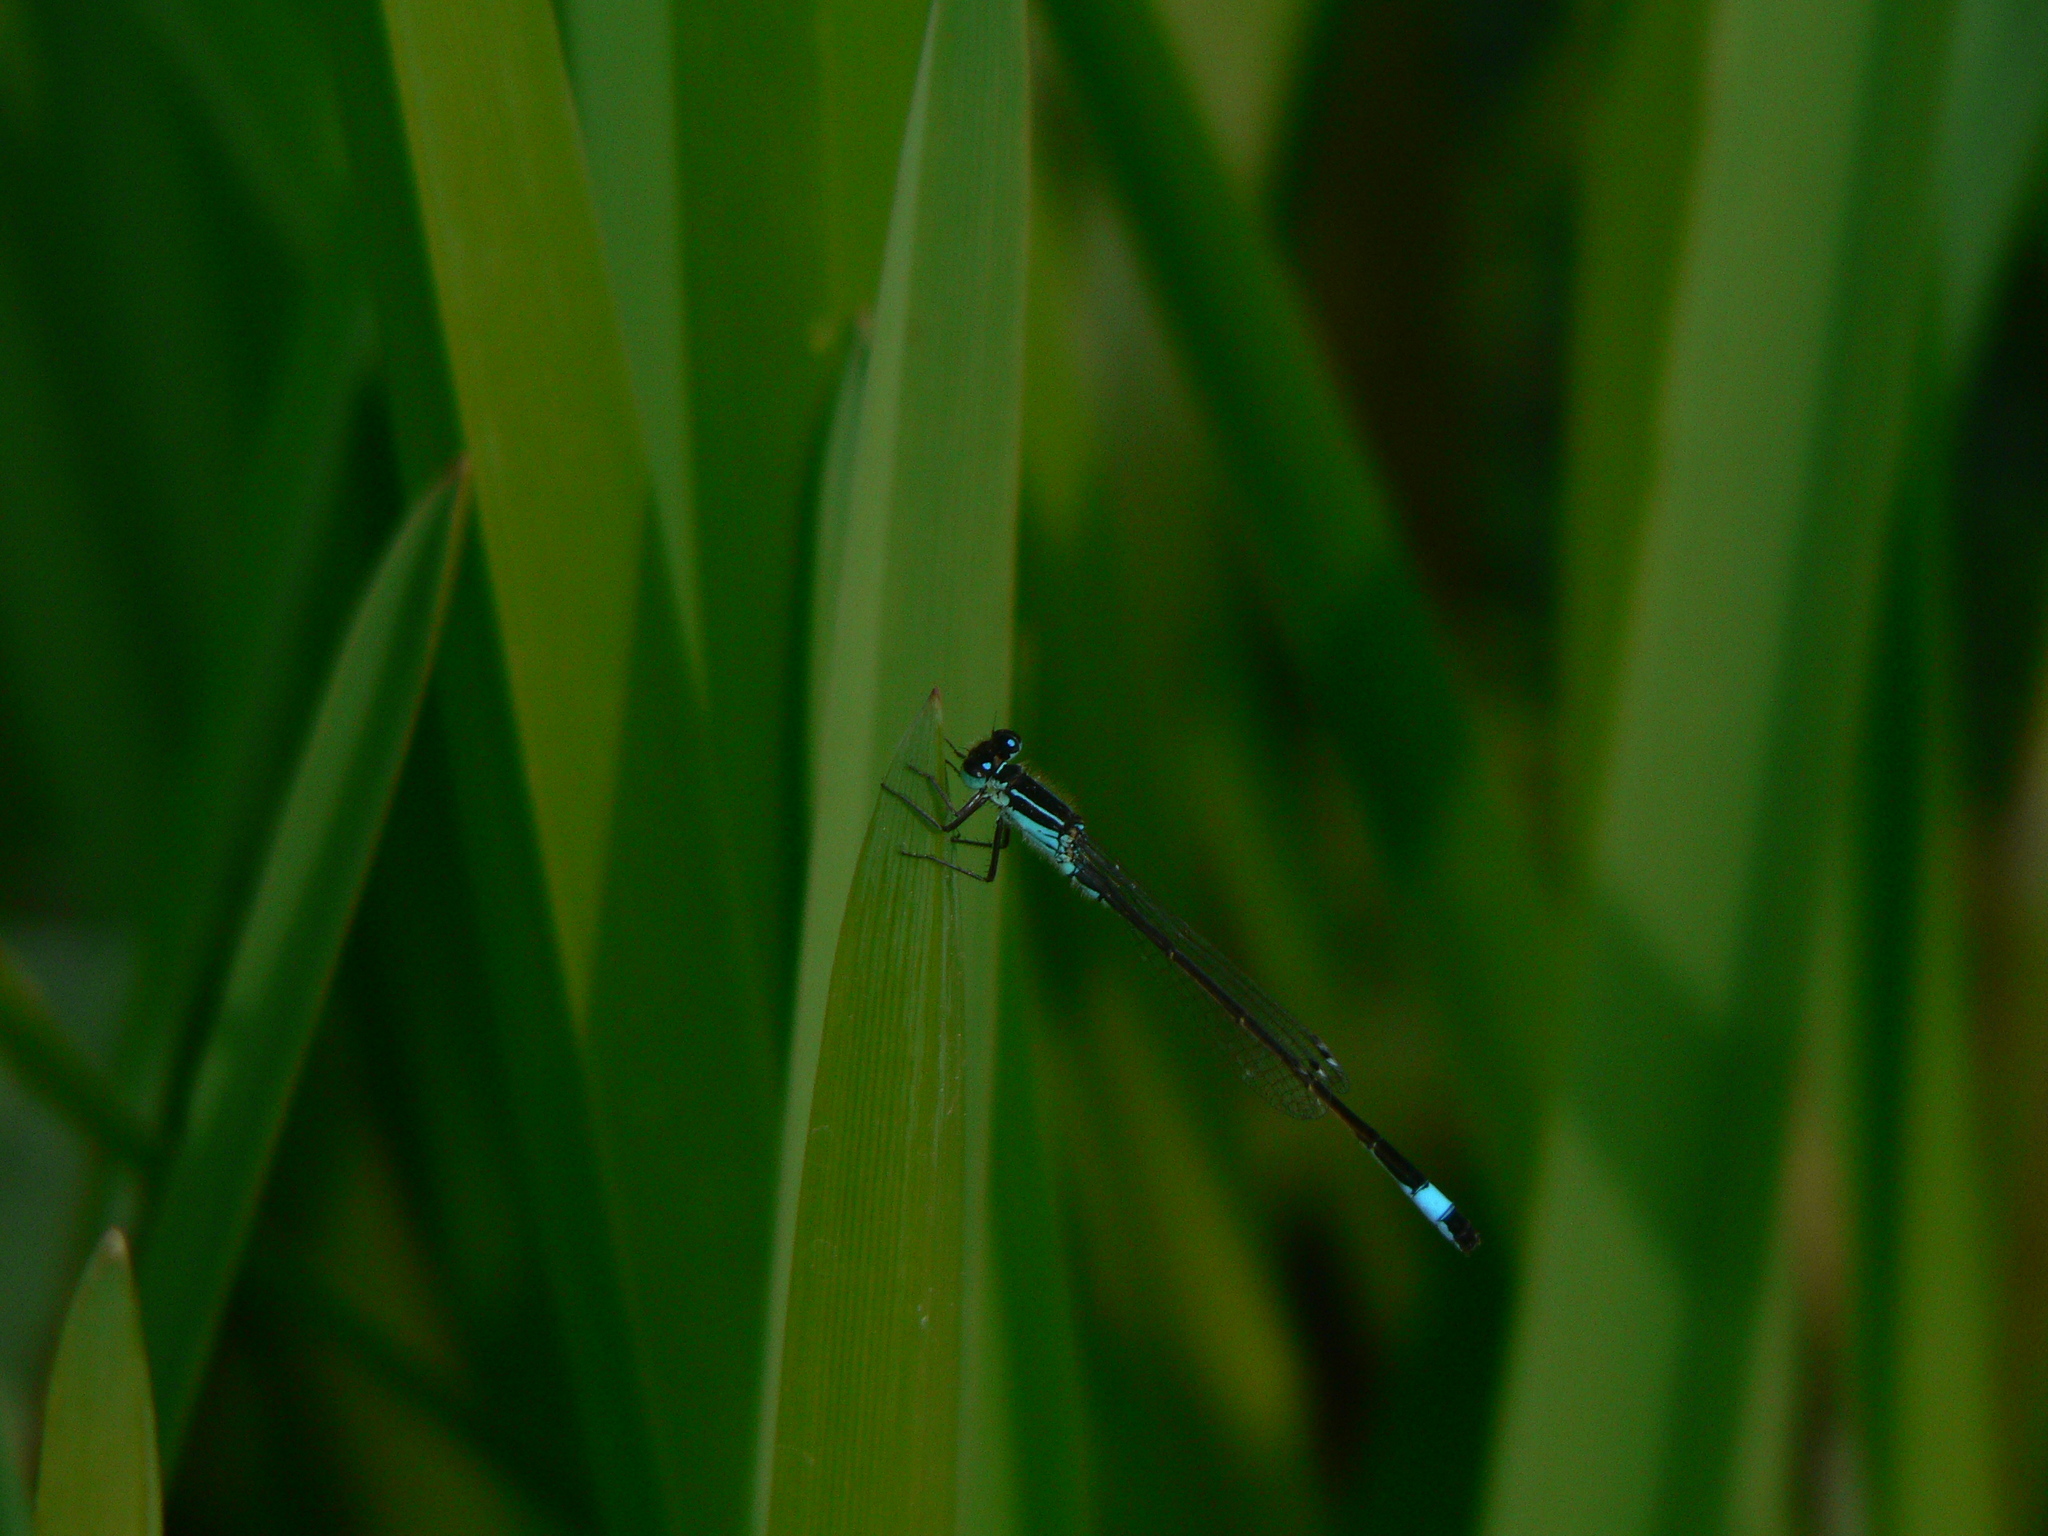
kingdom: Animalia
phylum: Arthropoda
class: Insecta
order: Odonata
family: Coenagrionidae
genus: Ischnura
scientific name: Ischnura elegans
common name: Blue-tailed damselfly
